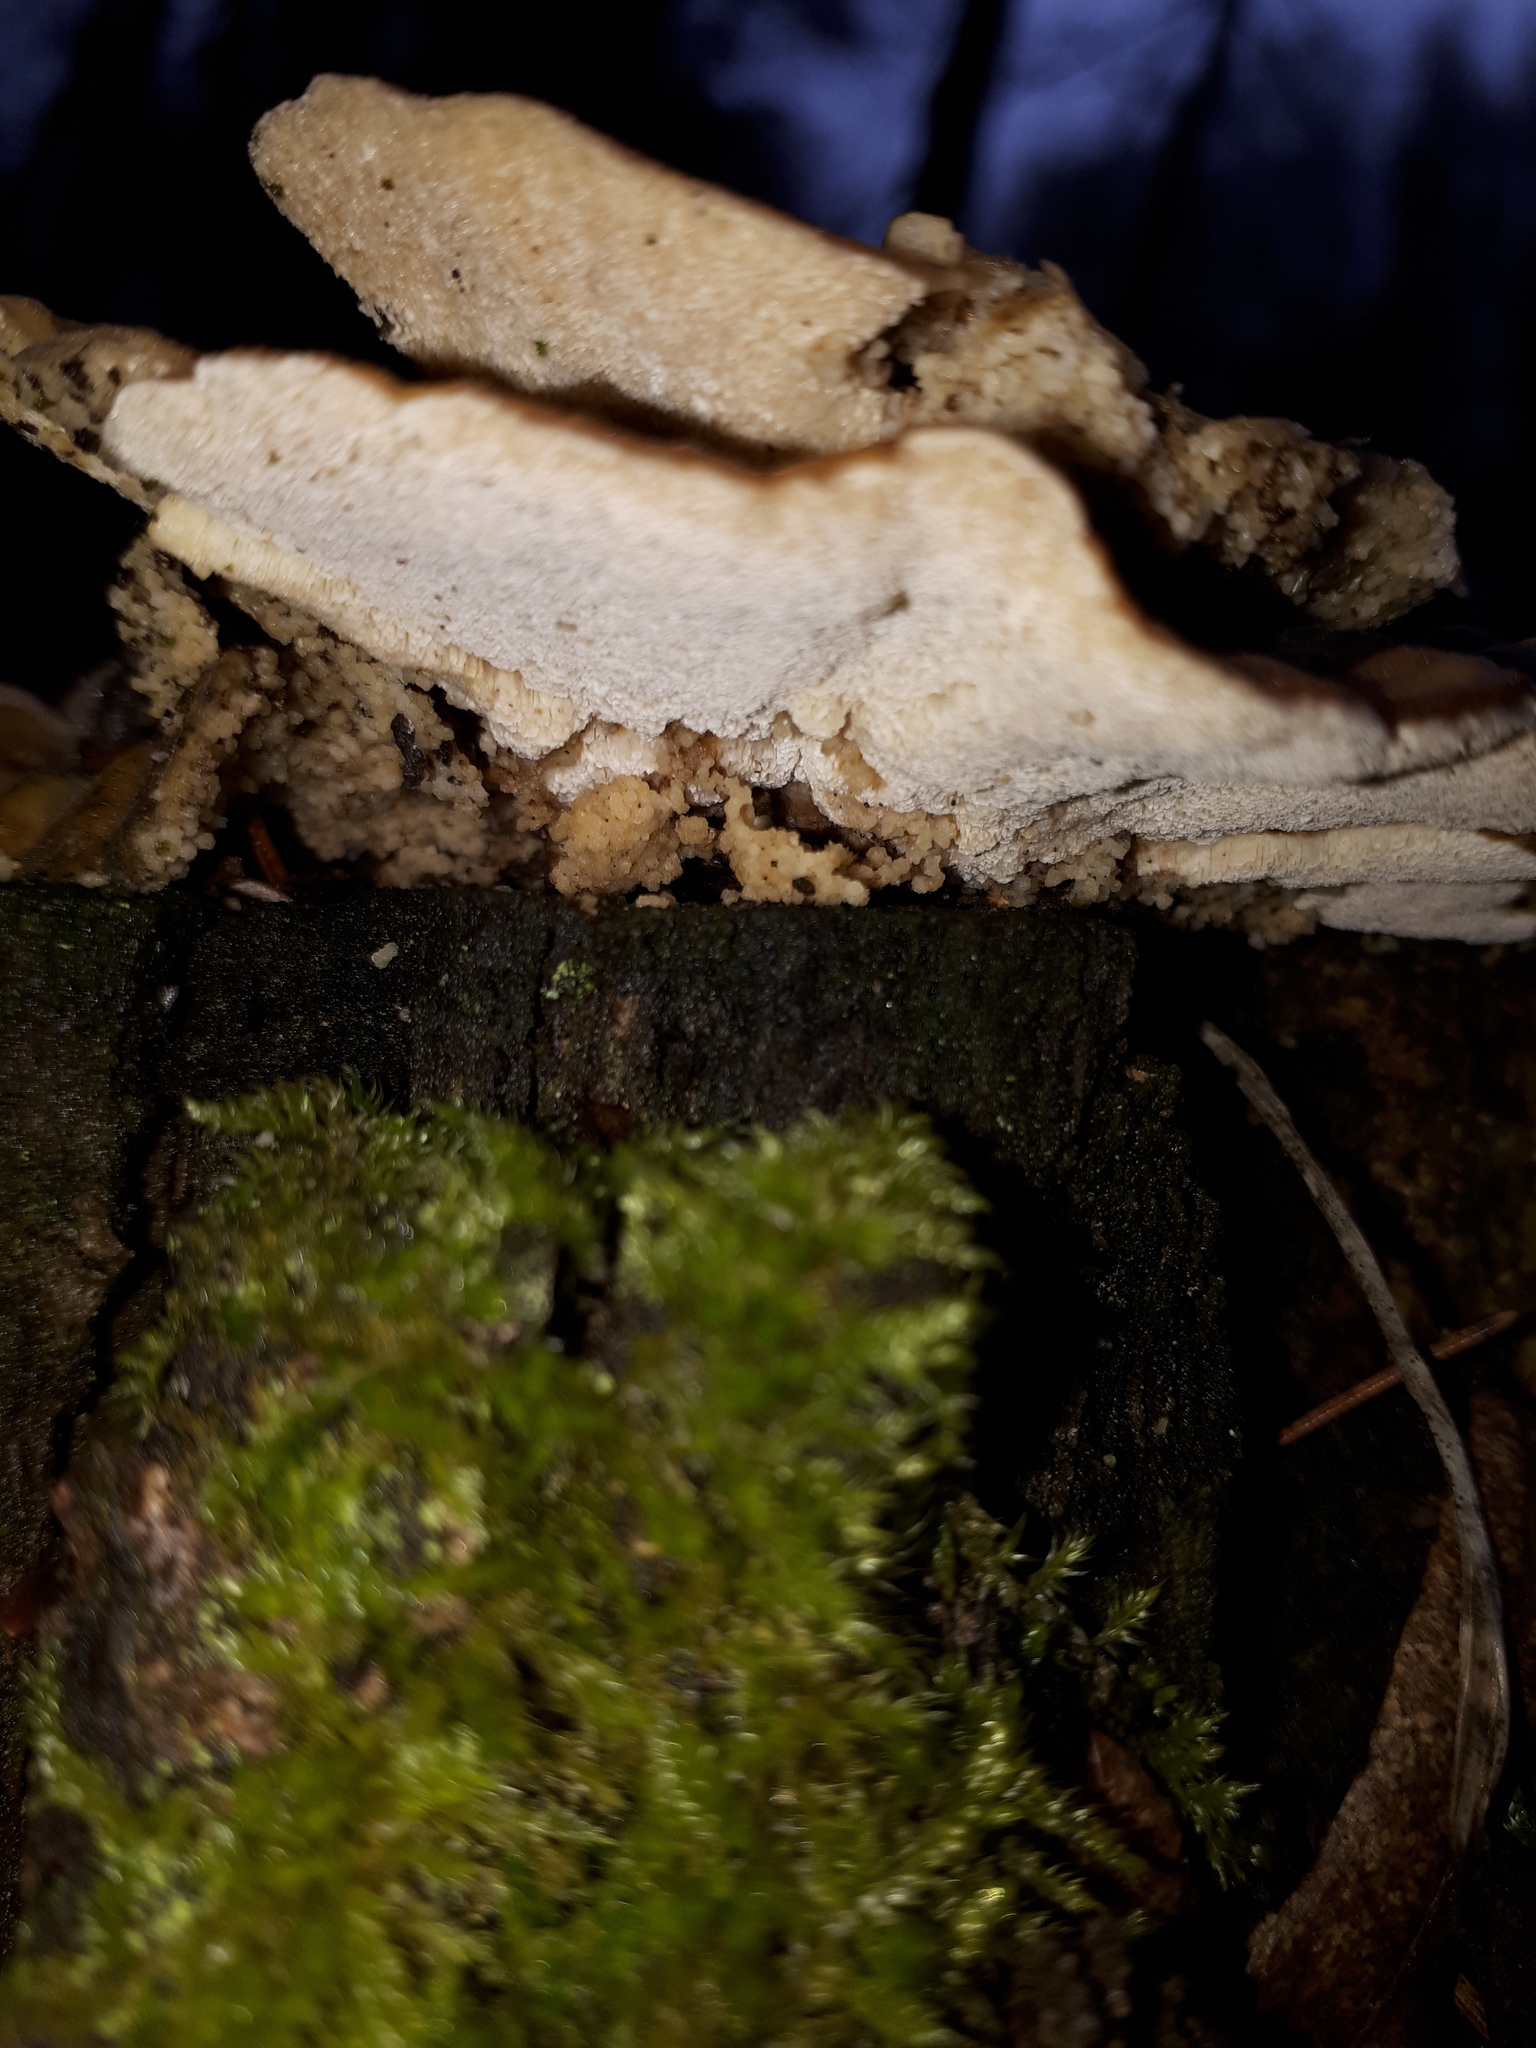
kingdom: Fungi
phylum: Basidiomycota
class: Agaricomycetes
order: Polyporales
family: Polyporaceae
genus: Trametes
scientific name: Trametes versicolor
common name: Turkeytail
